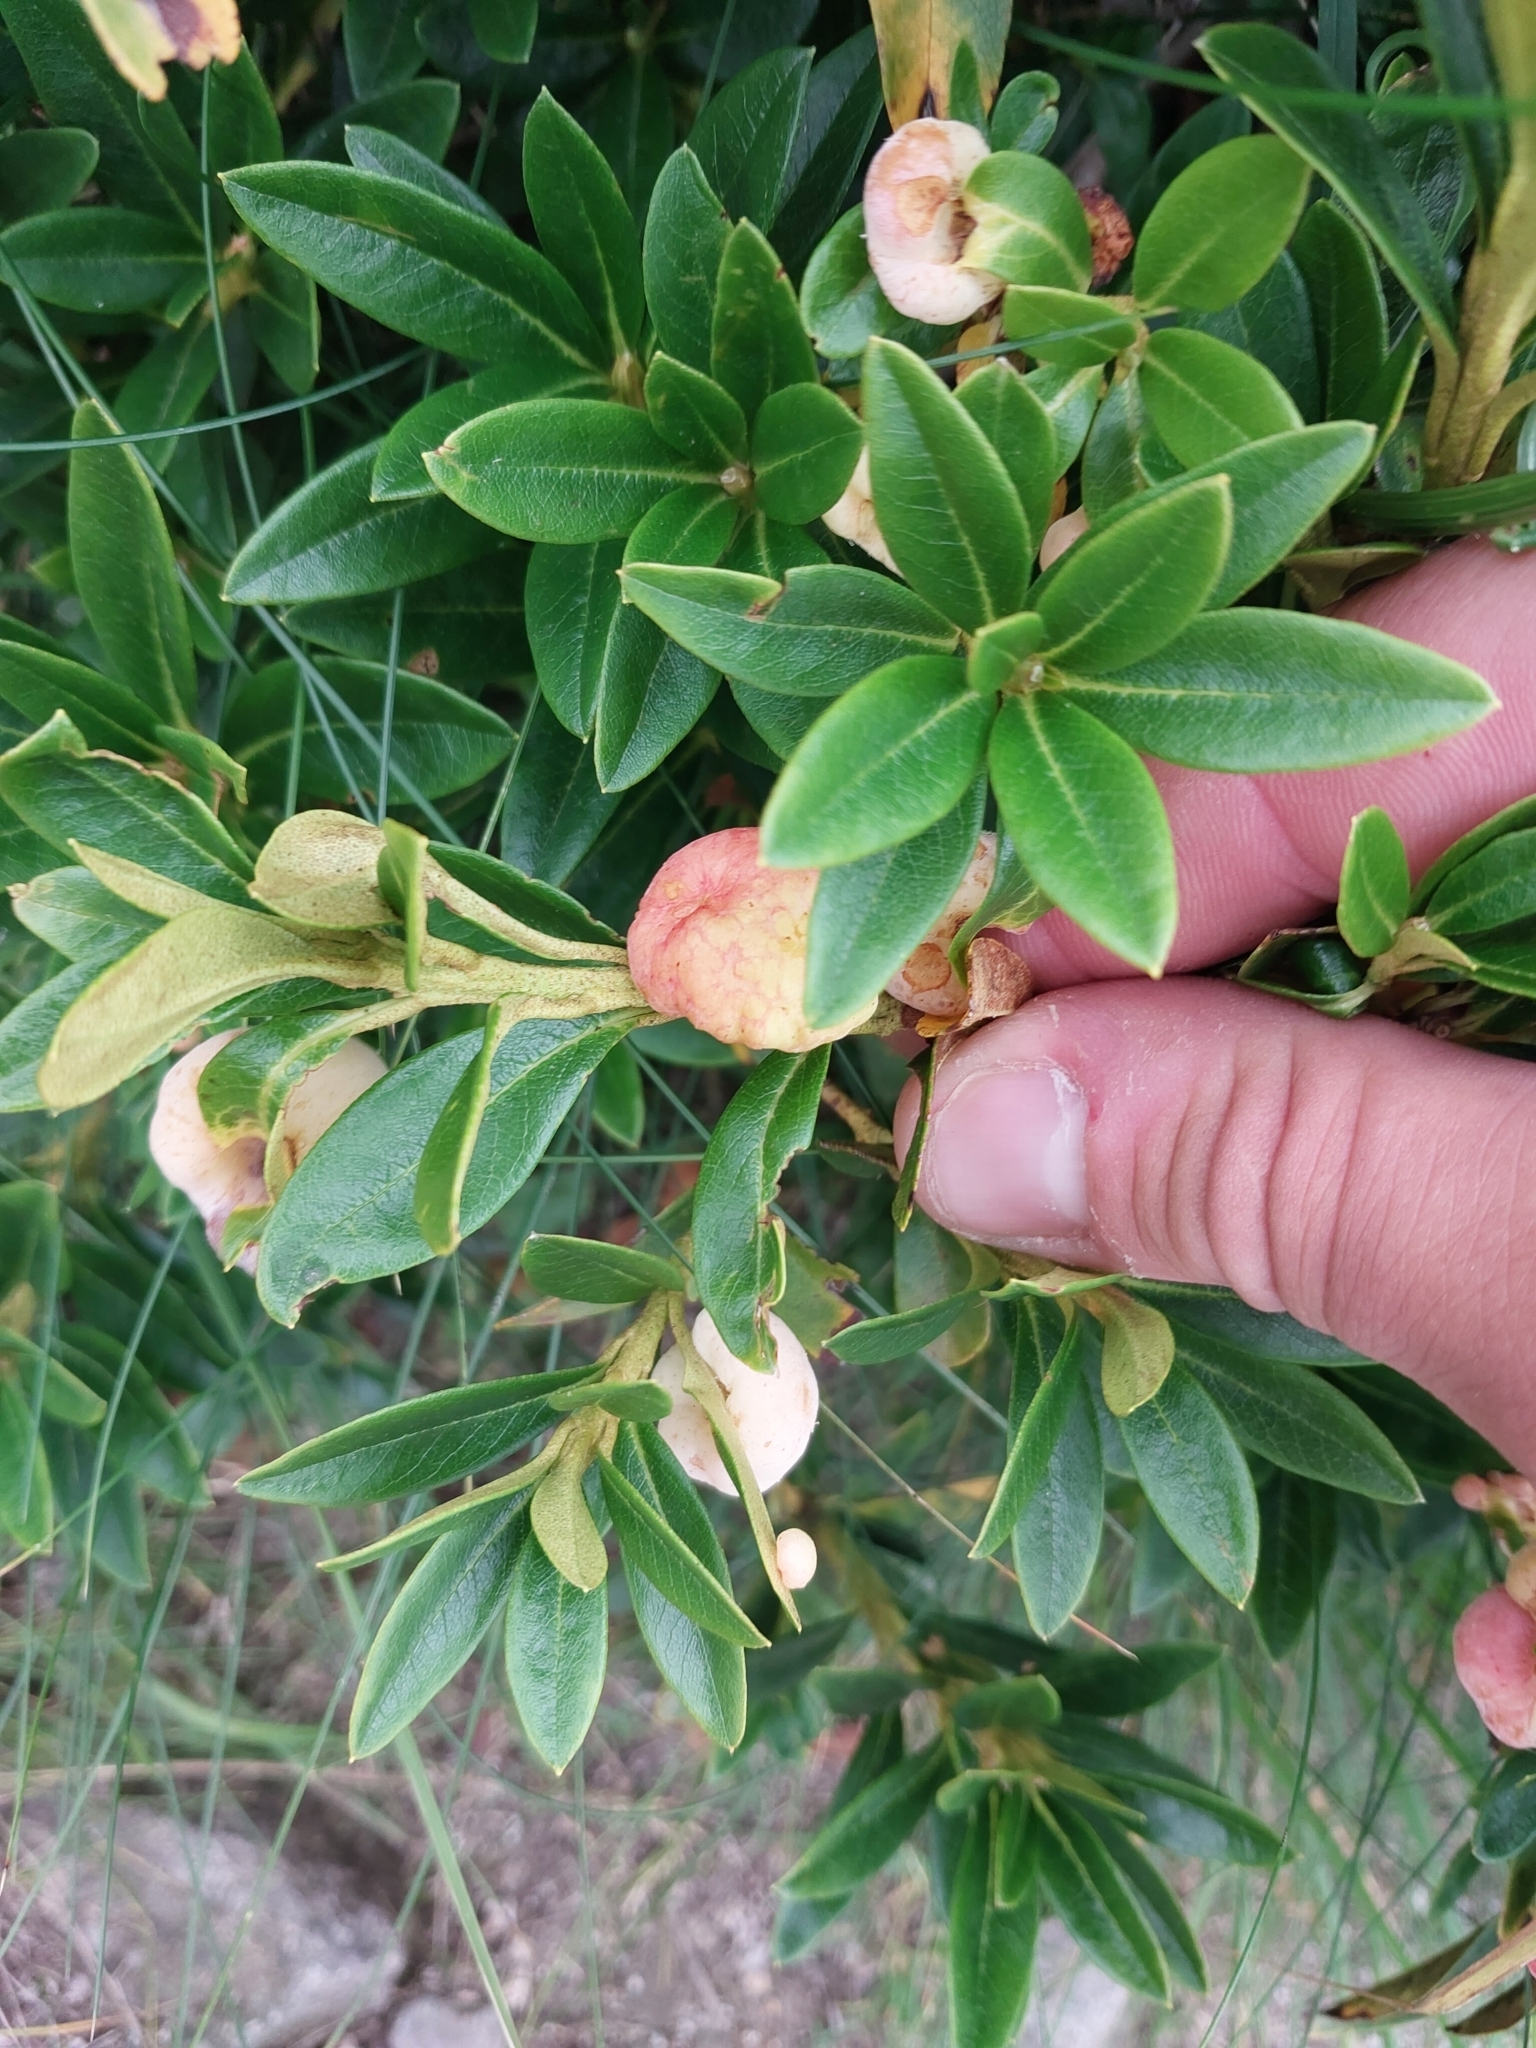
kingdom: Plantae
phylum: Tracheophyta
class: Magnoliopsida
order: Ericales
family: Ericaceae
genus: Rhododendron
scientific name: Rhododendron ferrugineum
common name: Alpenrose
